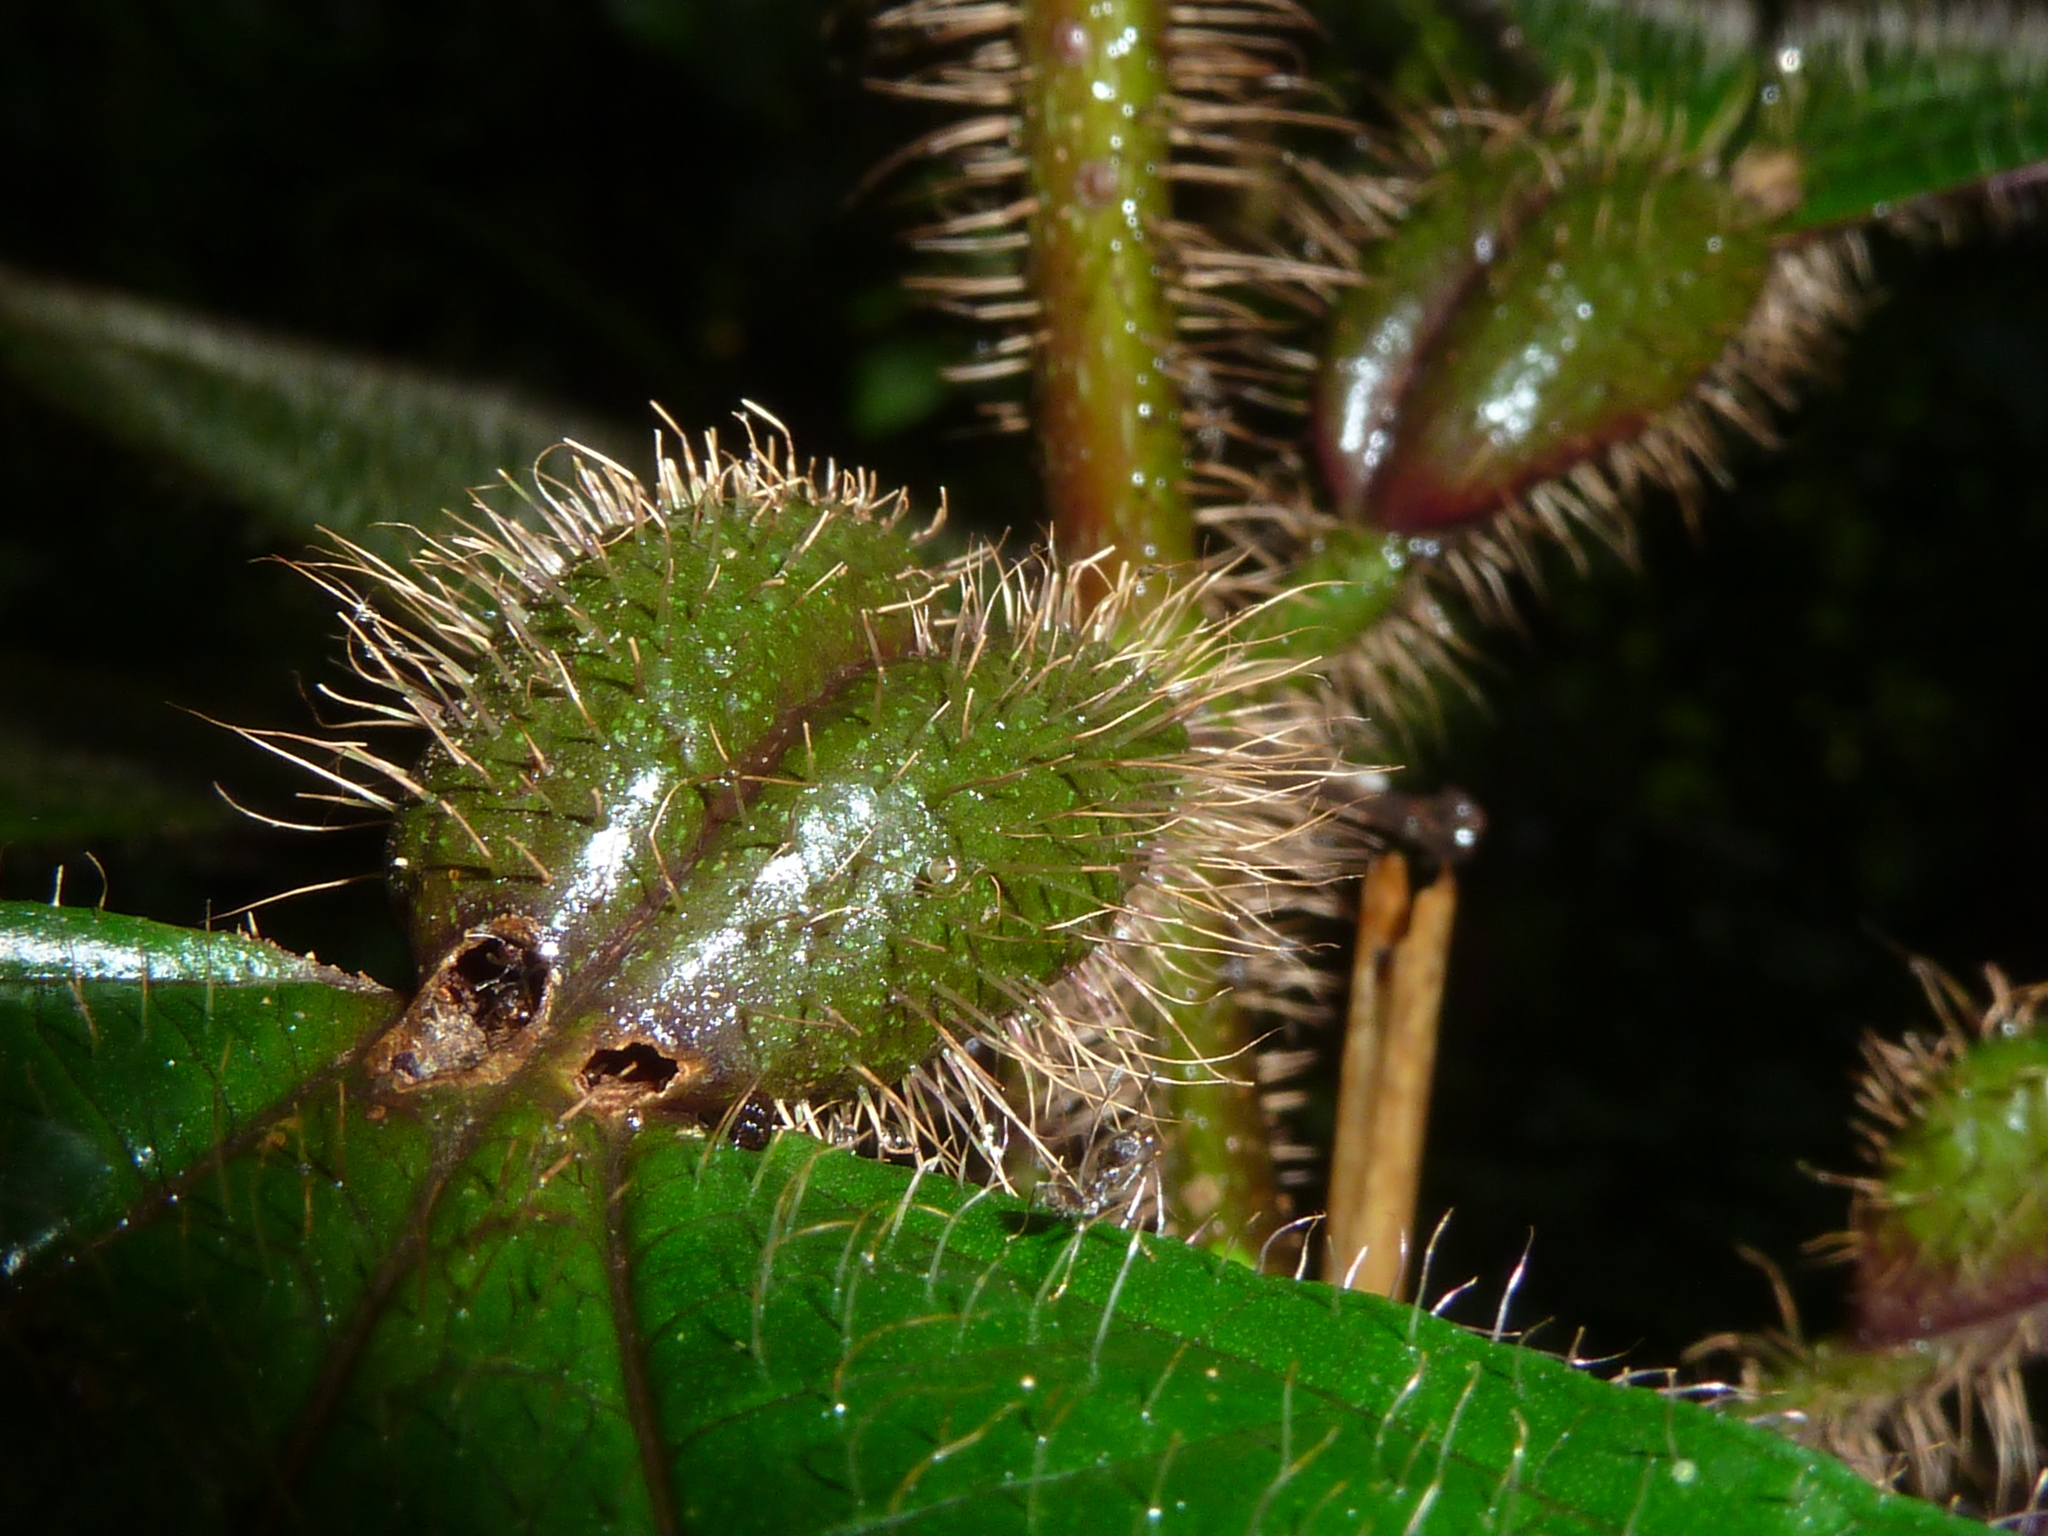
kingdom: Plantae
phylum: Tracheophyta
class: Magnoliopsida
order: Myrtales
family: Melastomataceae
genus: Miconia
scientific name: Miconia tococa
